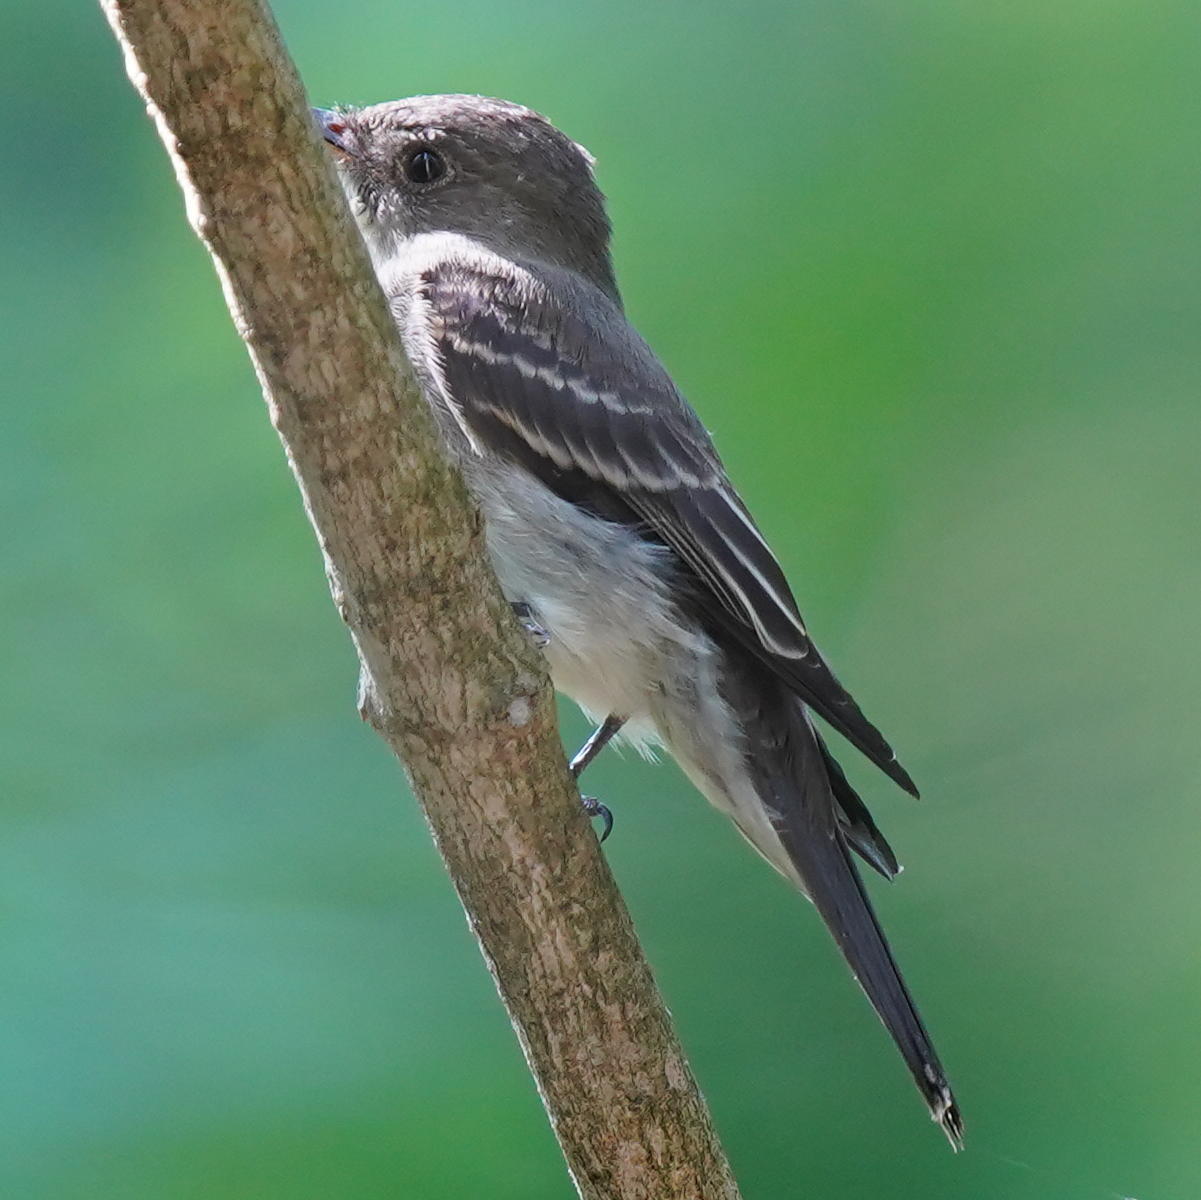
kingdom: Animalia
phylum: Chordata
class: Aves
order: Passeriformes
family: Tyrannidae
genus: Contopus
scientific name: Contopus virens
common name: Eastern wood-pewee
